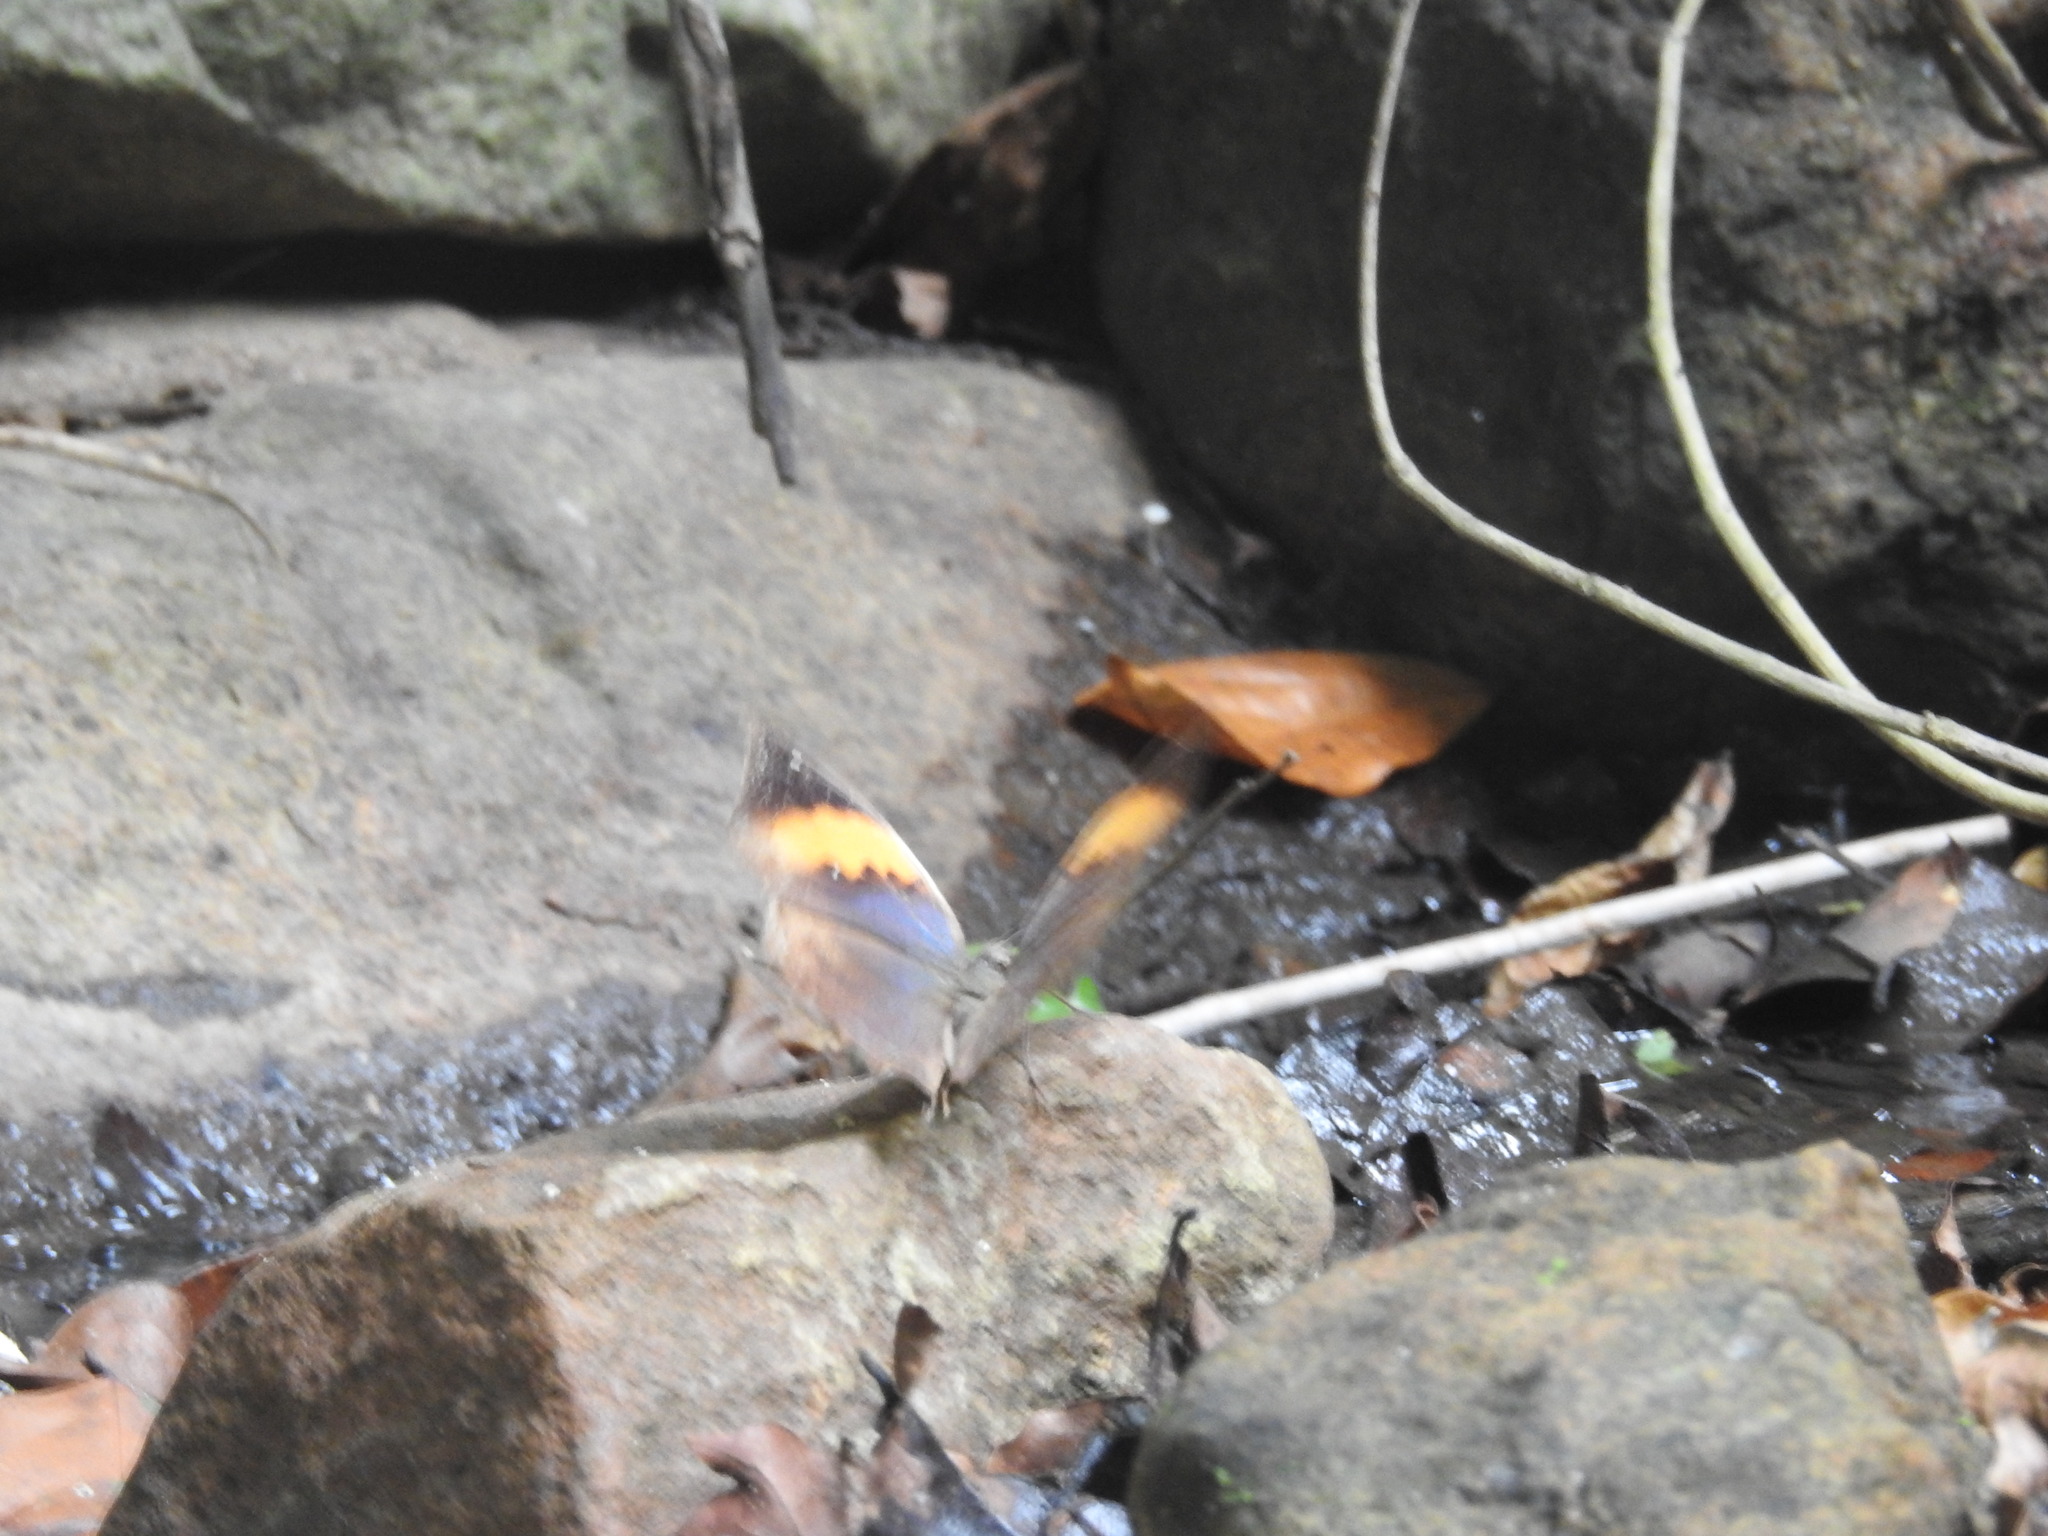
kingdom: Animalia
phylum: Arthropoda
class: Insecta
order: Lepidoptera
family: Nymphalidae
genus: Kallima
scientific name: Kallima inachus
